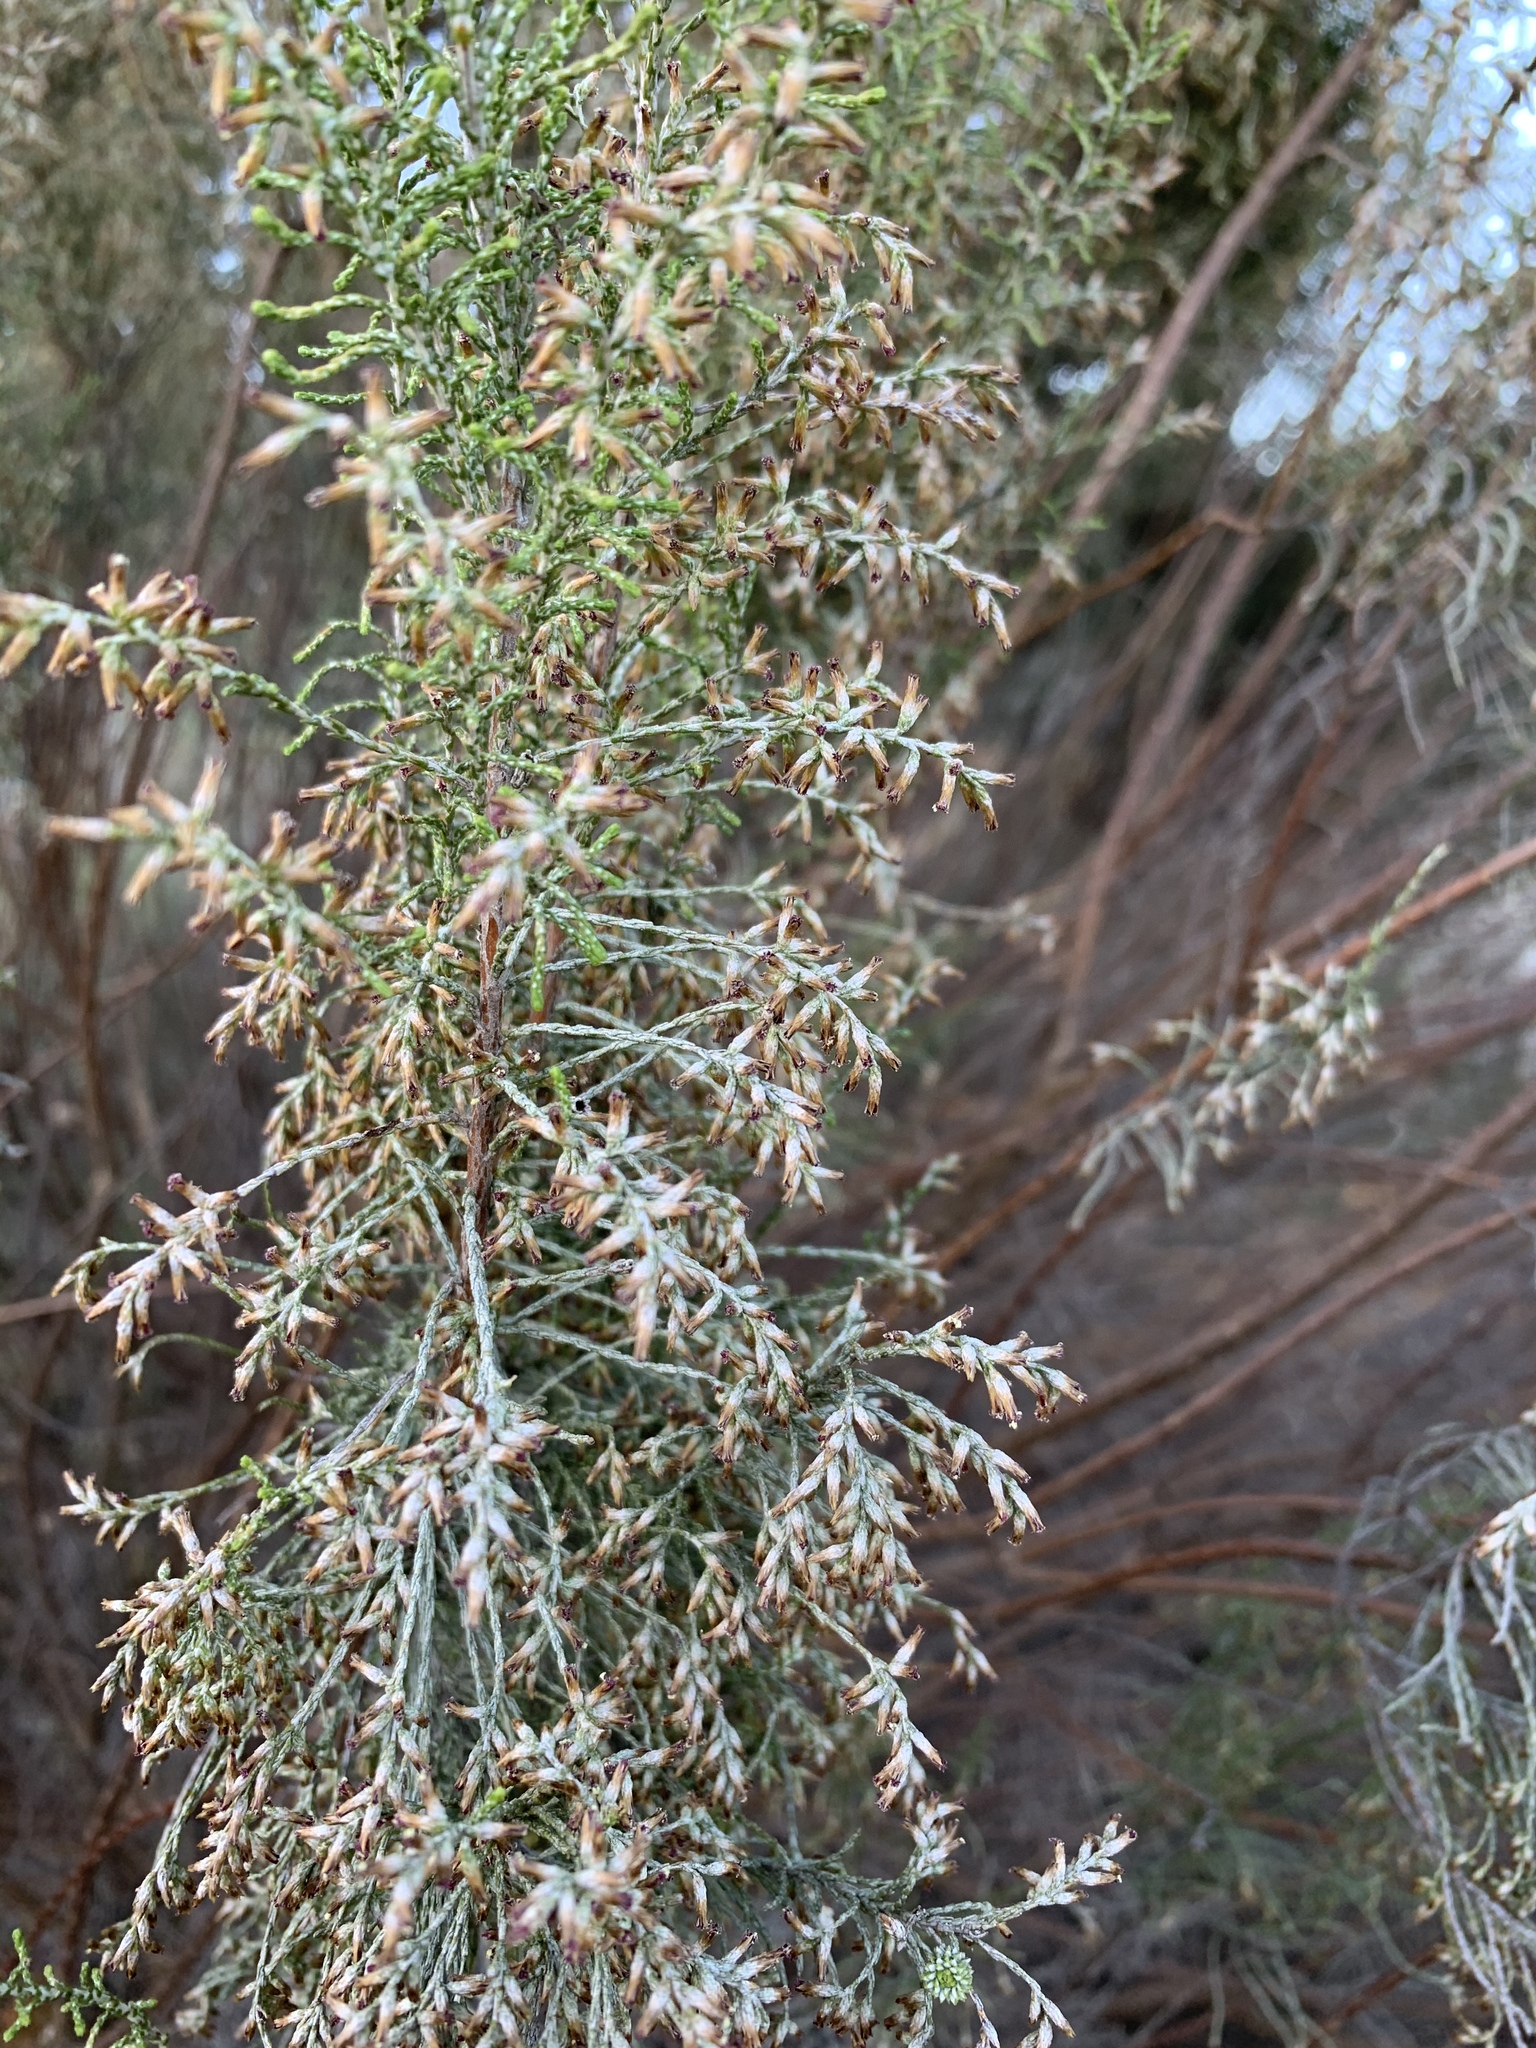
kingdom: Plantae
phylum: Tracheophyta
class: Magnoliopsida
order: Asterales
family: Asteraceae
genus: Dicerothamnus
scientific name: Dicerothamnus rhinocerotis
